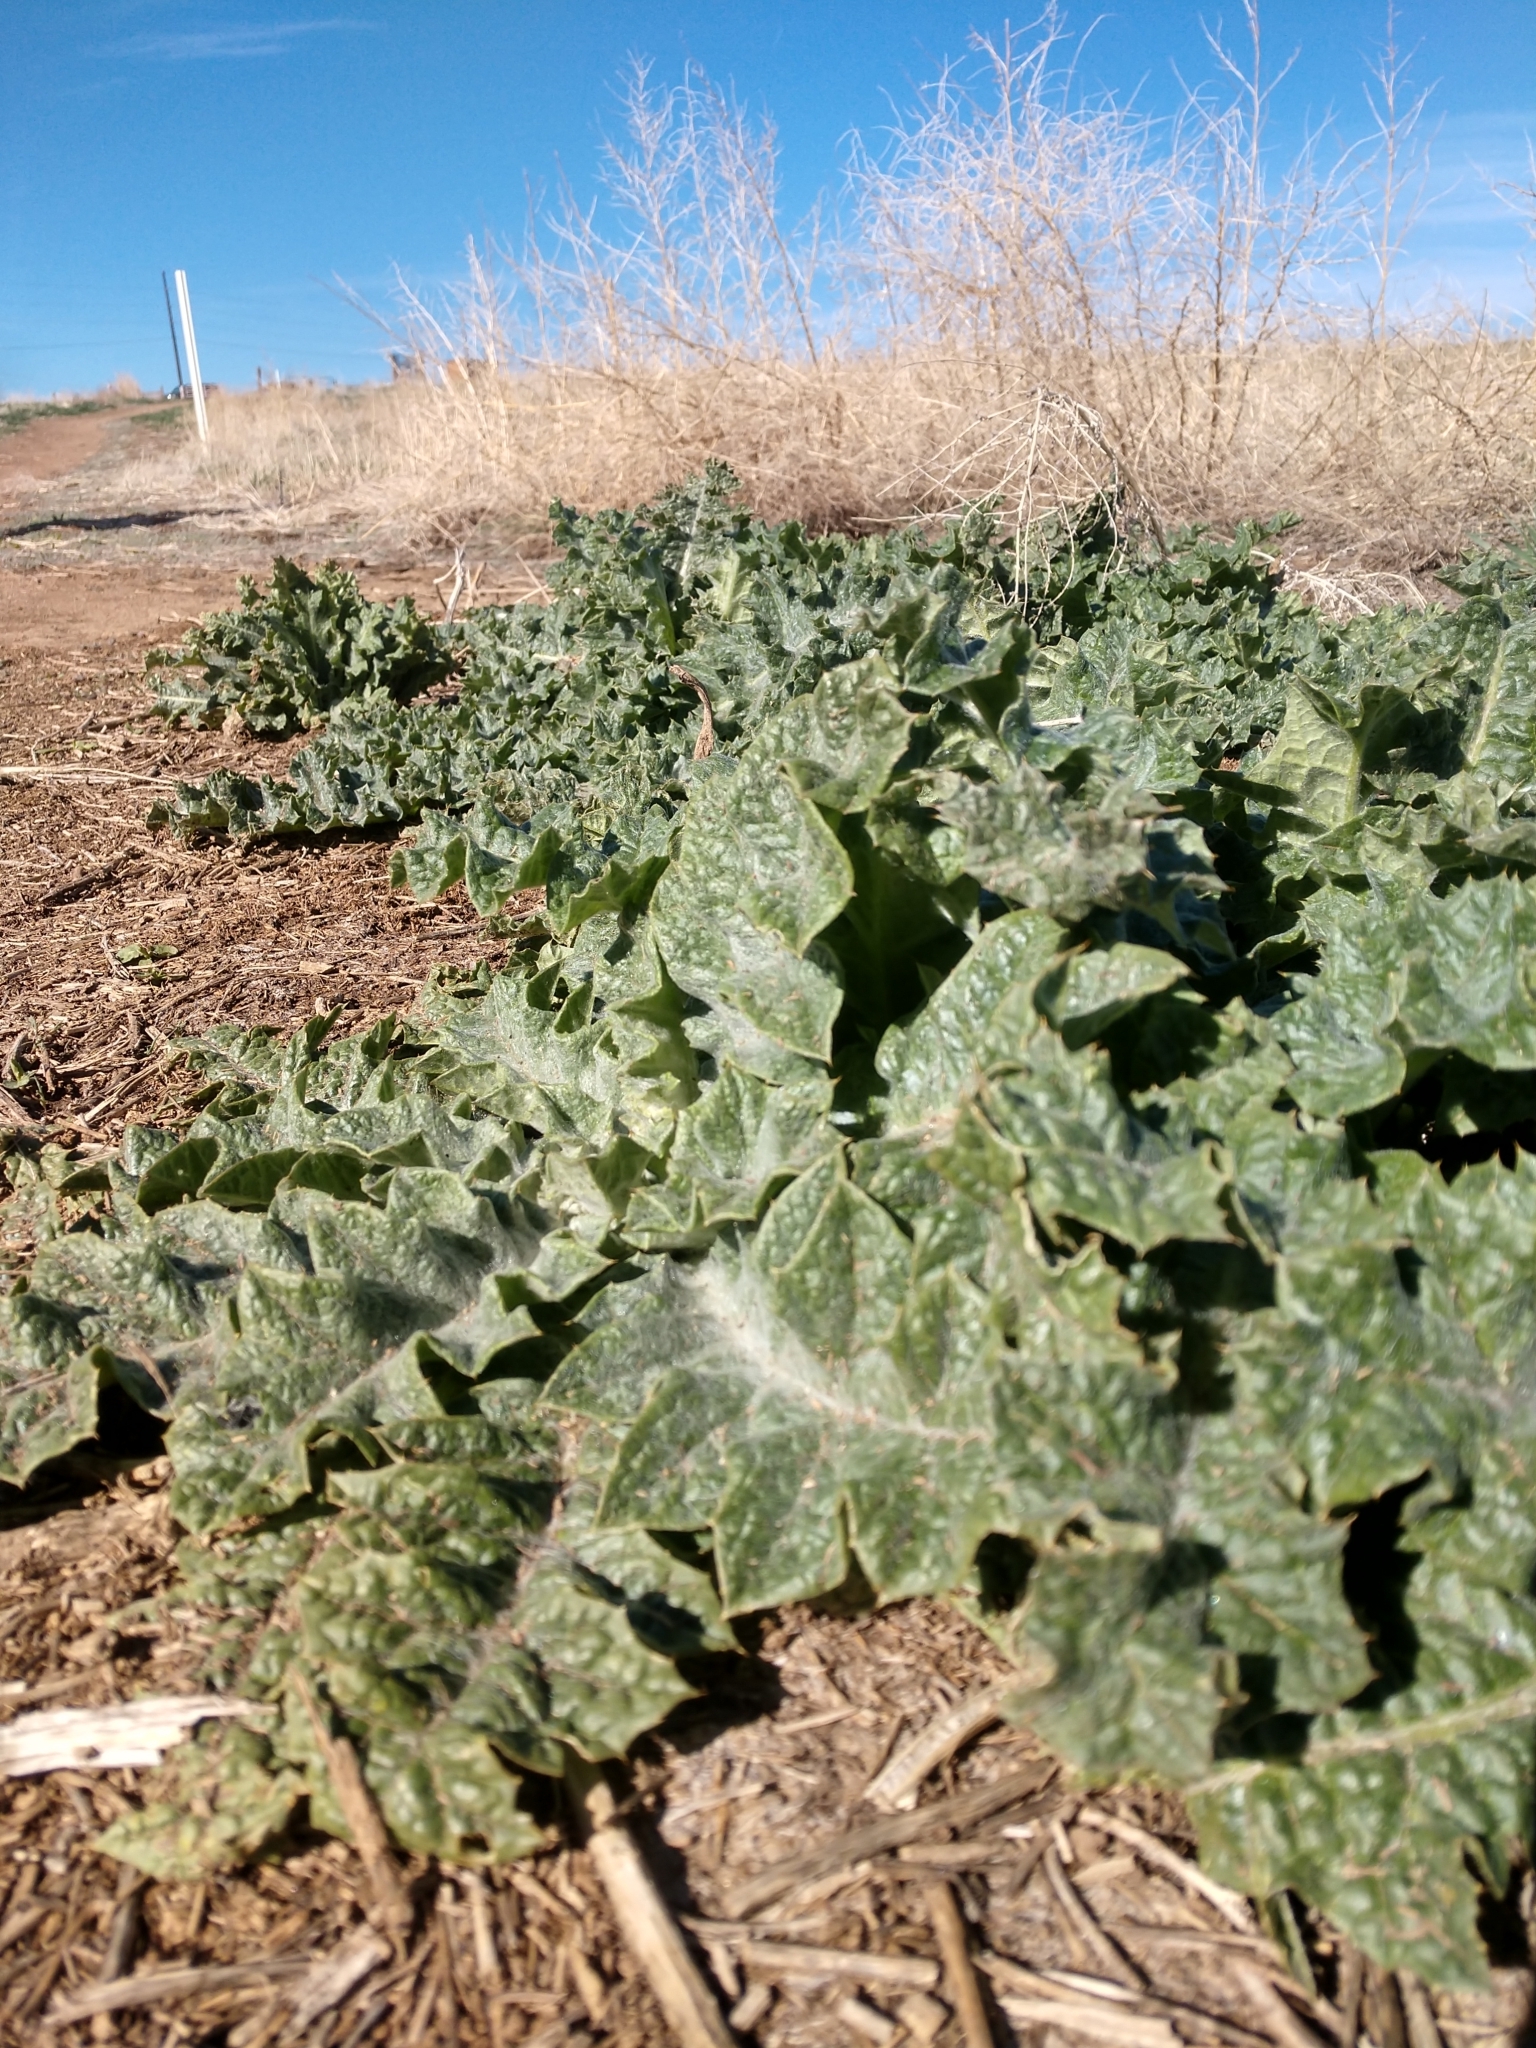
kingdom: Plantae
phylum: Tracheophyta
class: Magnoliopsida
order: Asterales
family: Asteraceae
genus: Onopordum
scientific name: Onopordum acanthium
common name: Scotch thistle
